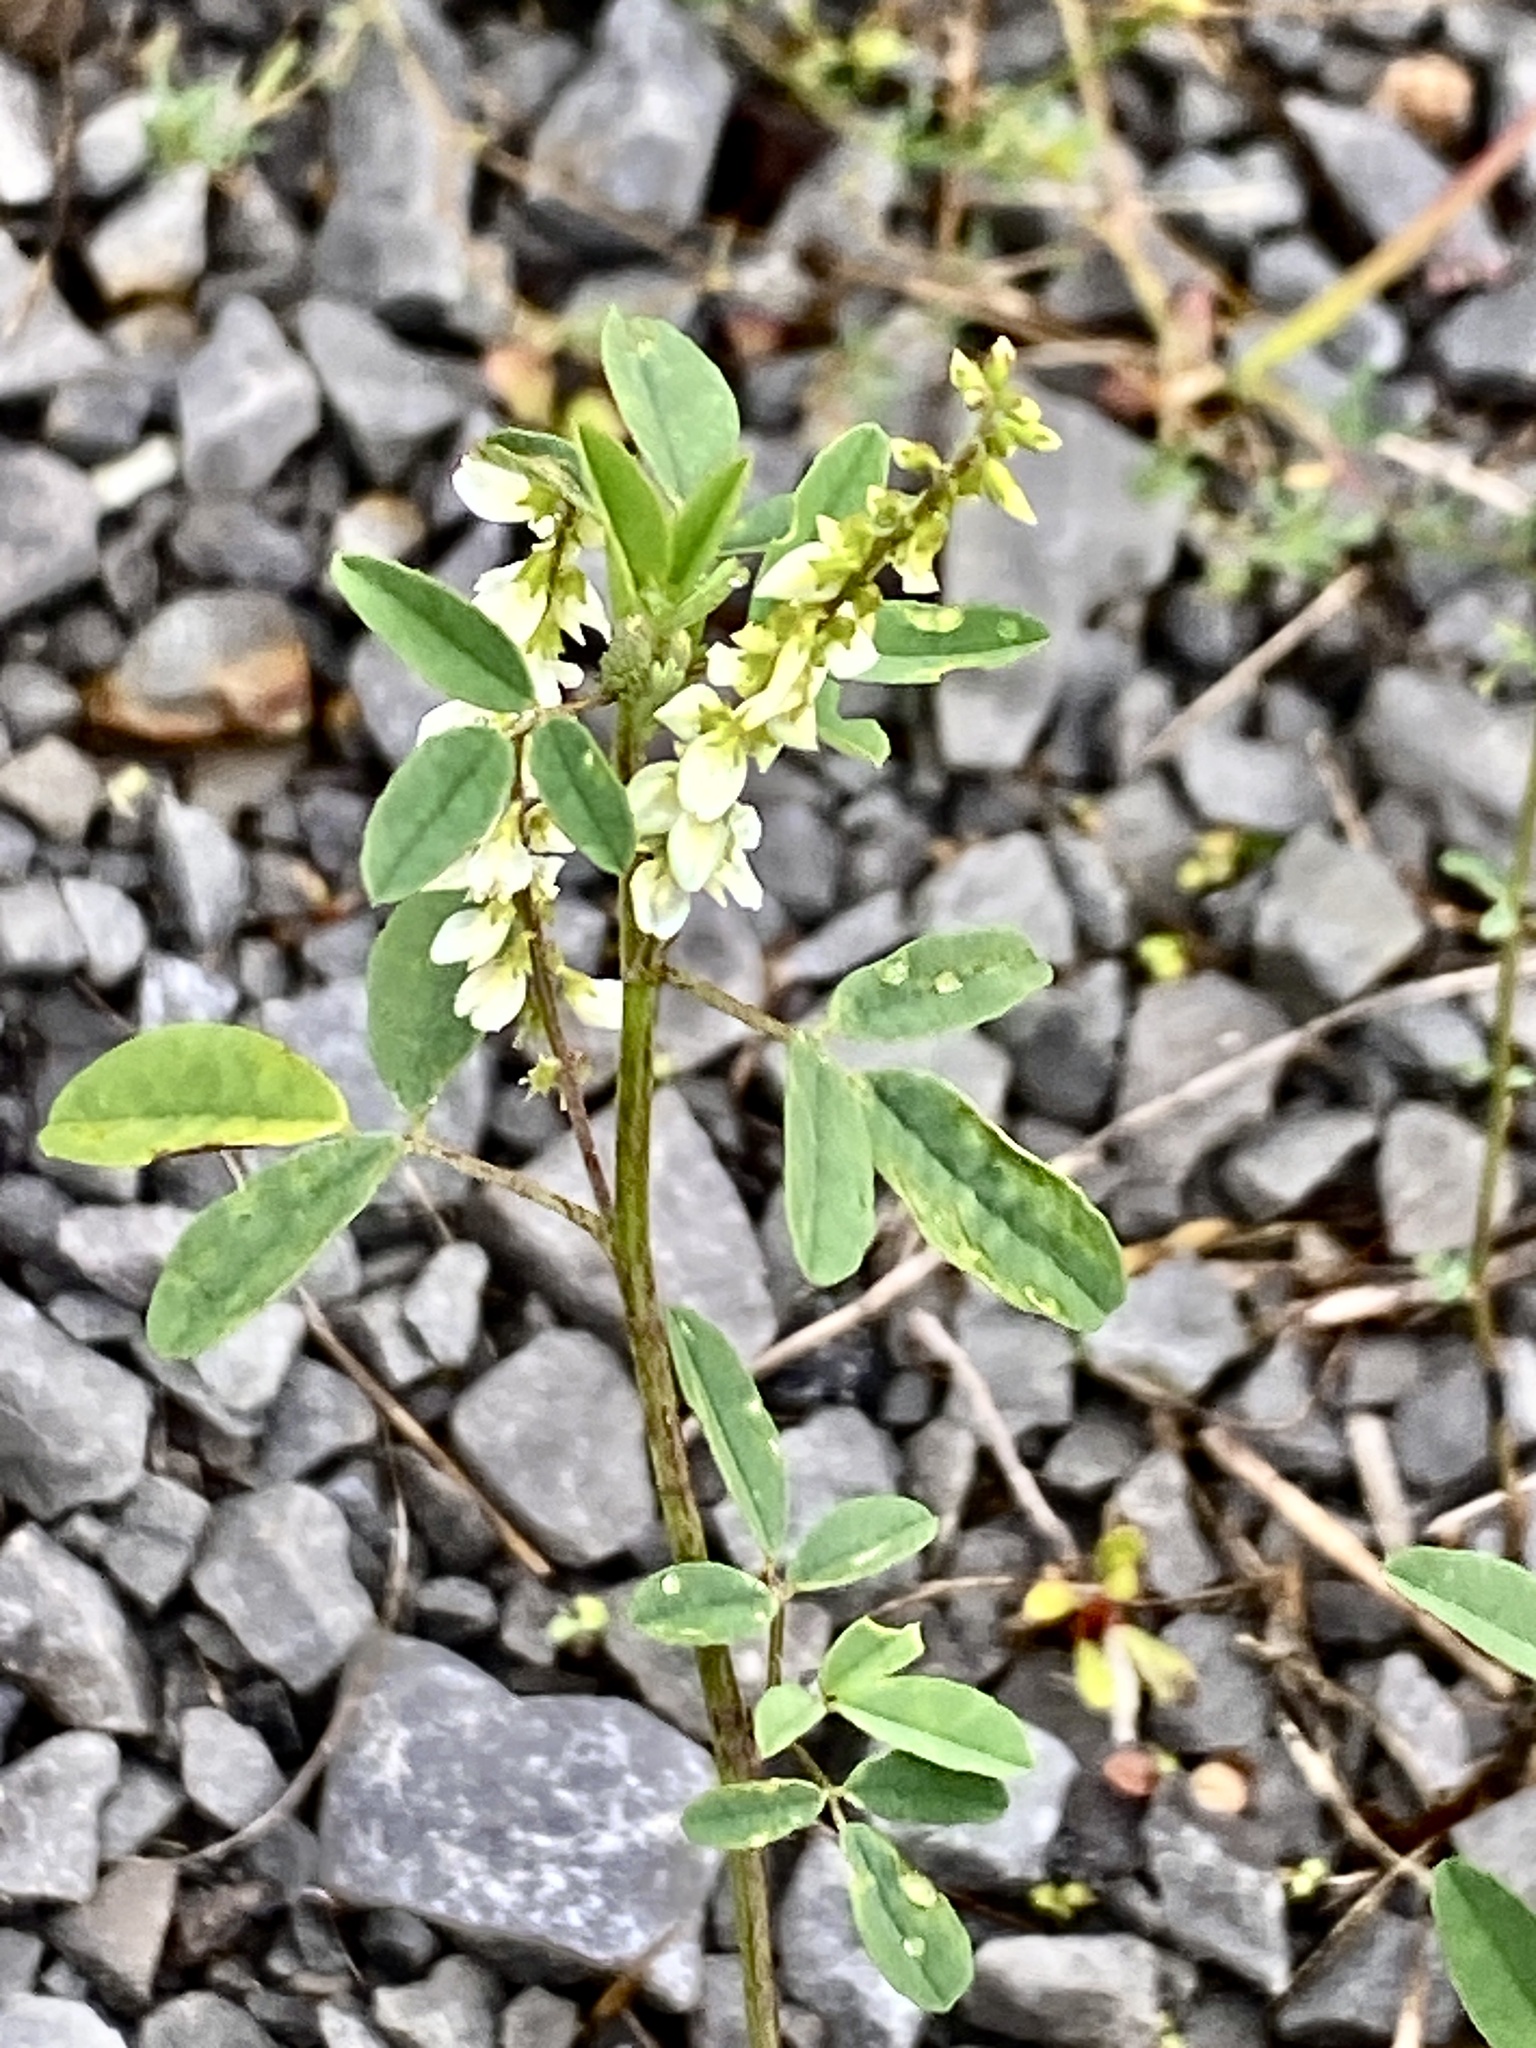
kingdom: Plantae
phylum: Tracheophyta
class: Magnoliopsida
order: Fabales
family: Fabaceae
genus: Melilotus
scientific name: Melilotus albus
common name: White melilot
